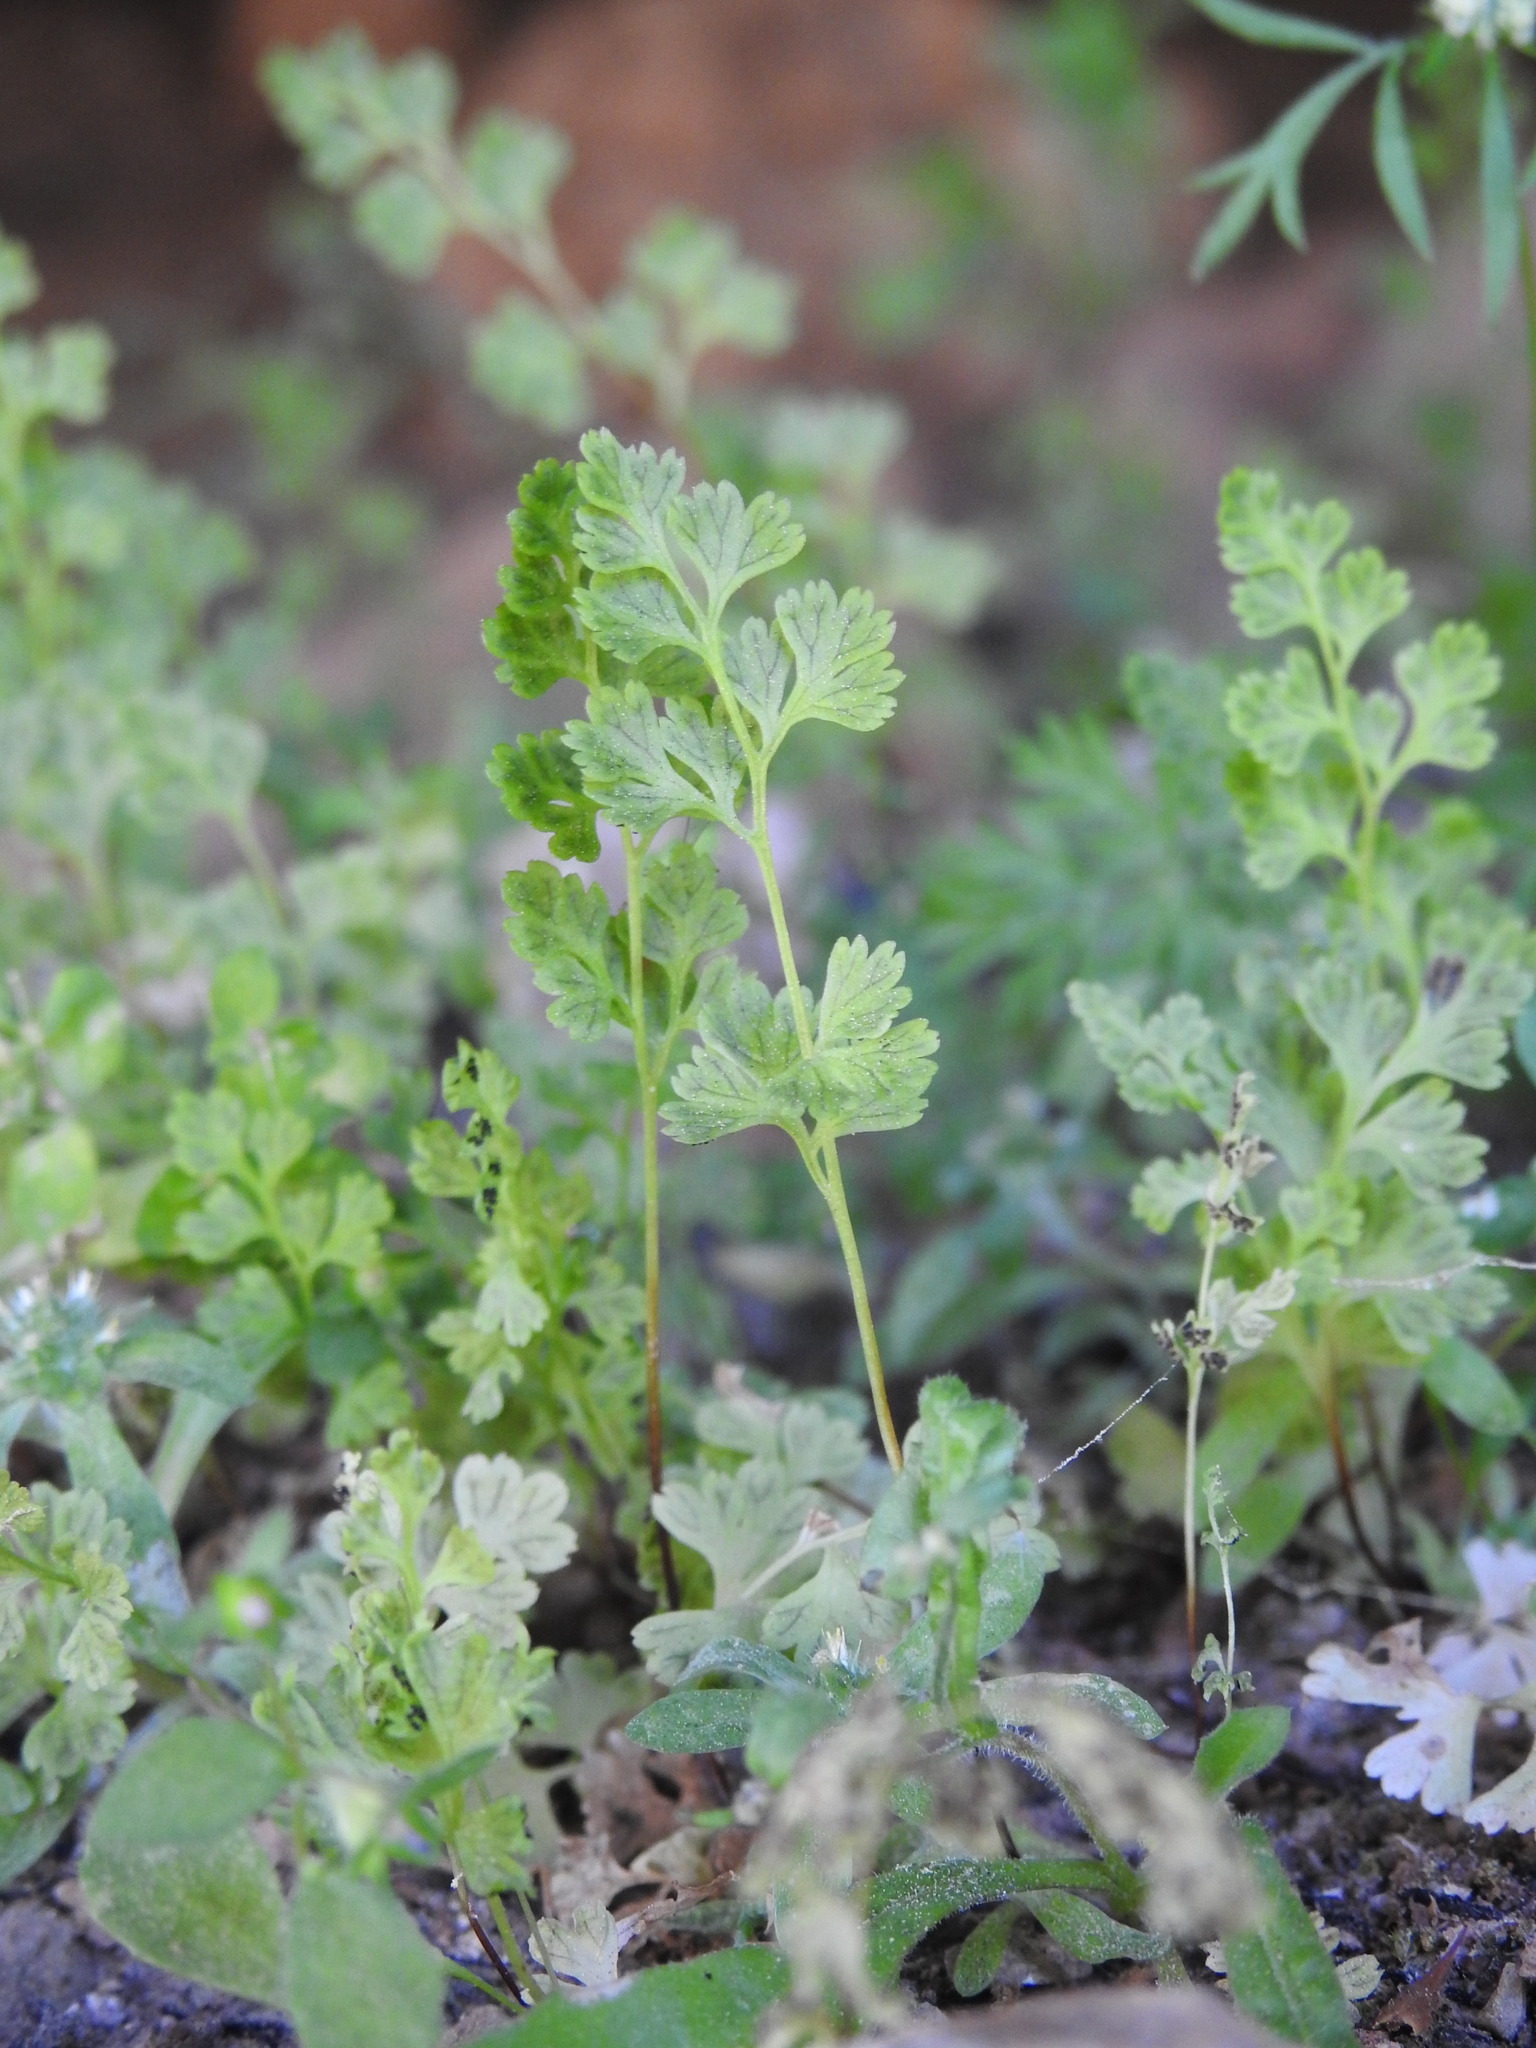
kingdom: Plantae
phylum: Tracheophyta
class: Polypodiopsida
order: Polypodiales
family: Pteridaceae
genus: Anogramma
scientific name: Anogramma leptophylla
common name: Jersey fern
